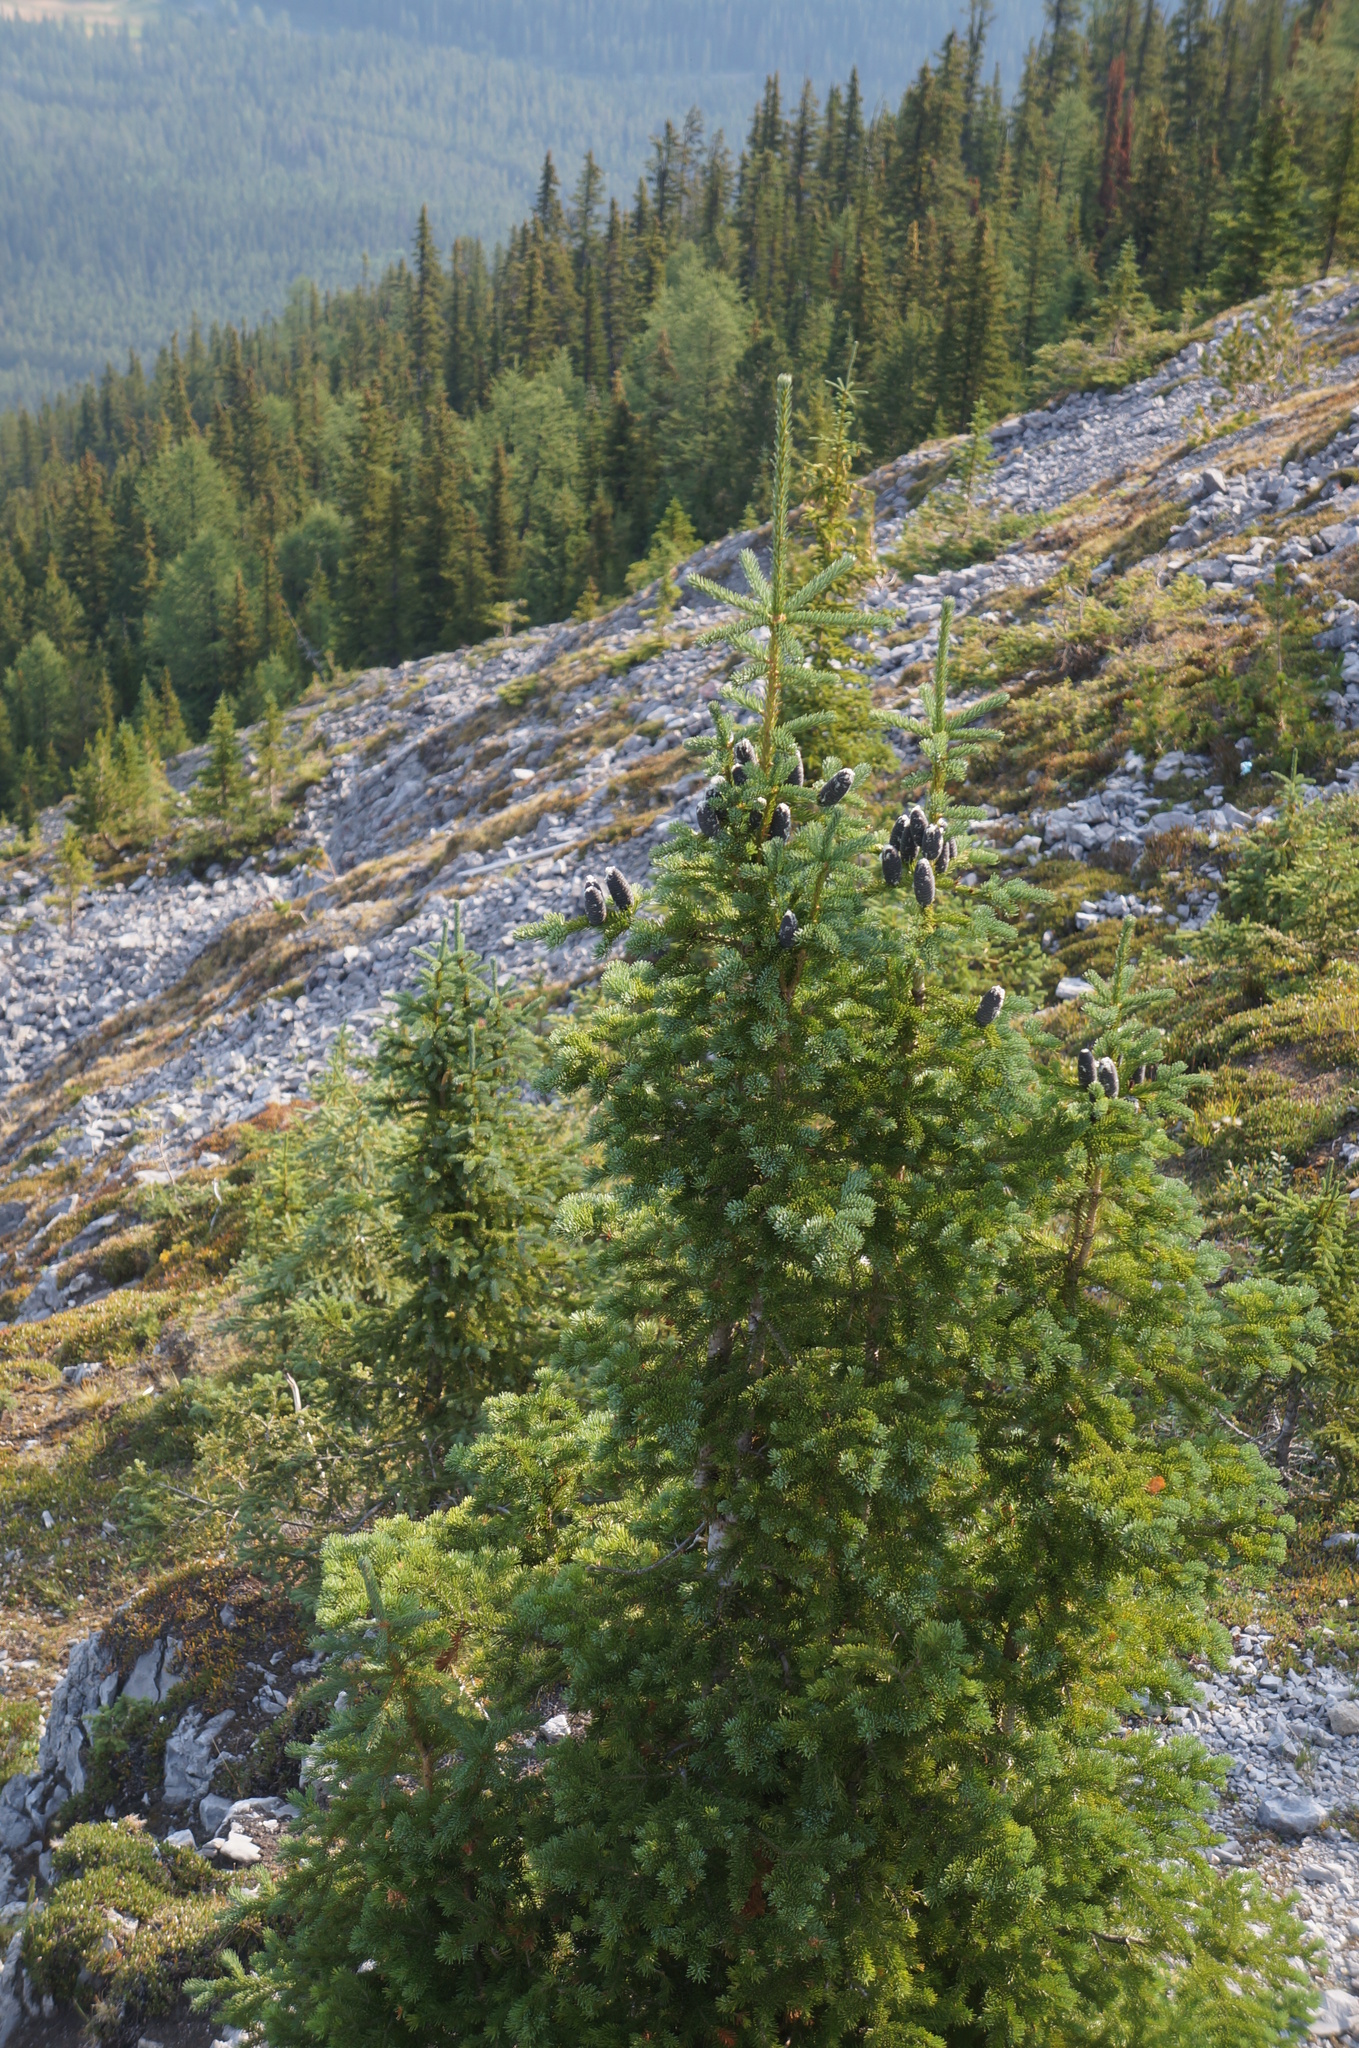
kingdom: Plantae
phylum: Tracheophyta
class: Pinopsida
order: Pinales
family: Pinaceae
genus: Abies
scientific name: Abies lasiocarpa
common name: Subalpine fir
